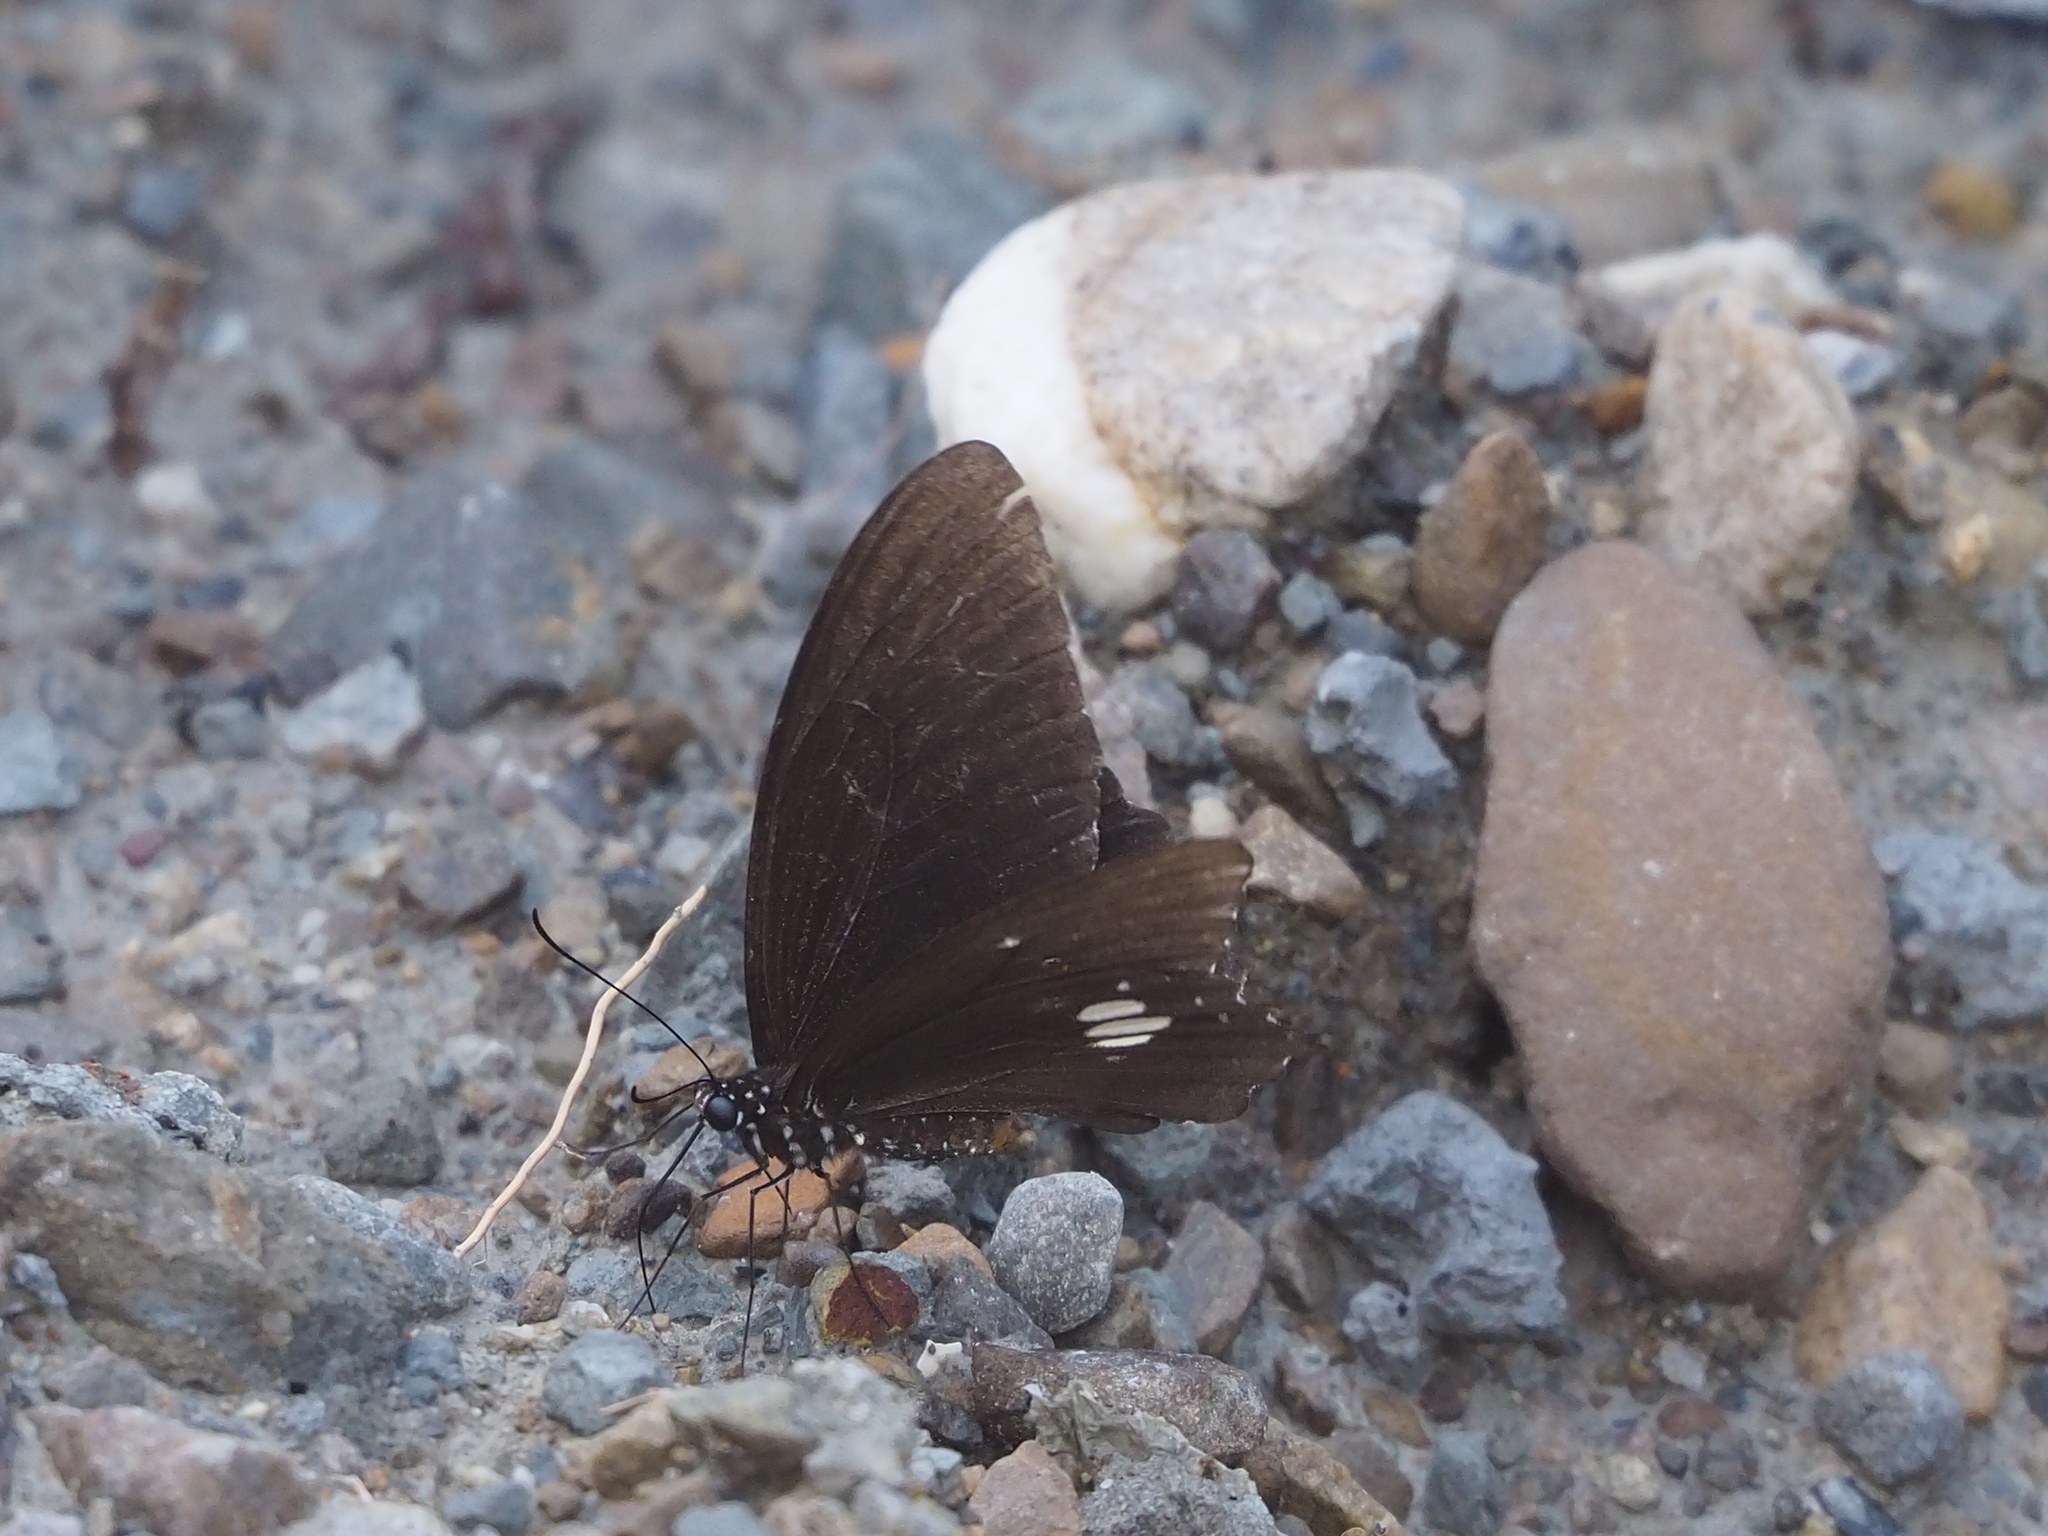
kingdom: Animalia
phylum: Arthropoda
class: Insecta
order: Lepidoptera
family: Papilionidae
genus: Papilio
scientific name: Papilio castor
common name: Common raven
